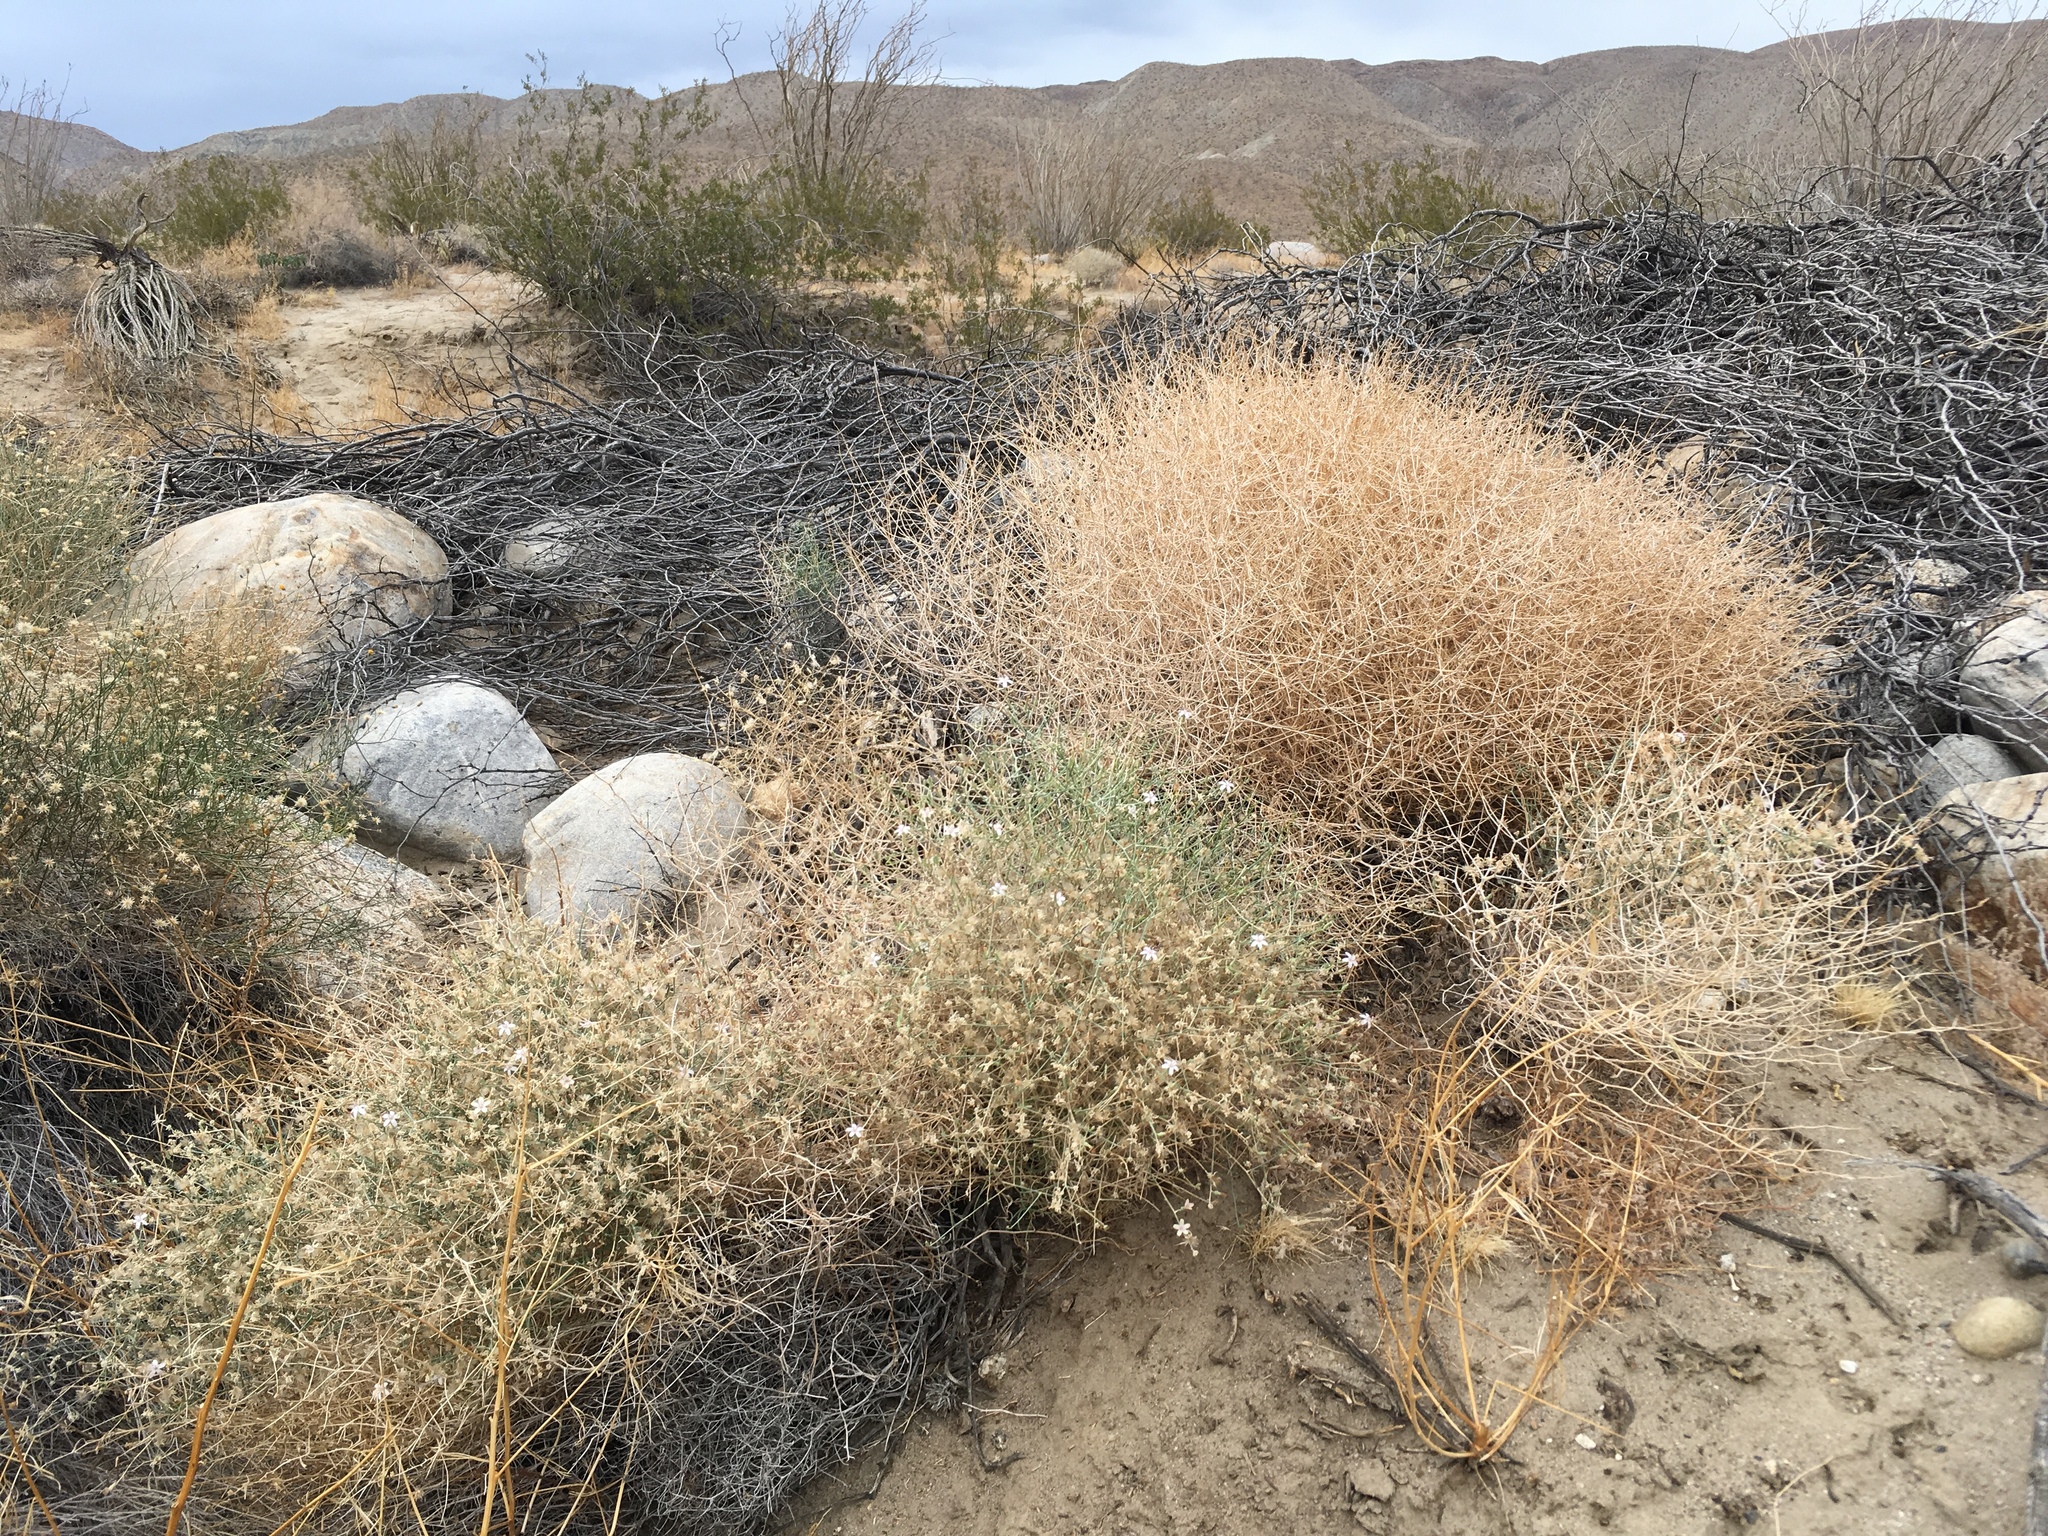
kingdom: Plantae
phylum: Tracheophyta
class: Magnoliopsida
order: Asterales
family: Asteraceae
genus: Stephanomeria
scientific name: Stephanomeria pauciflora
